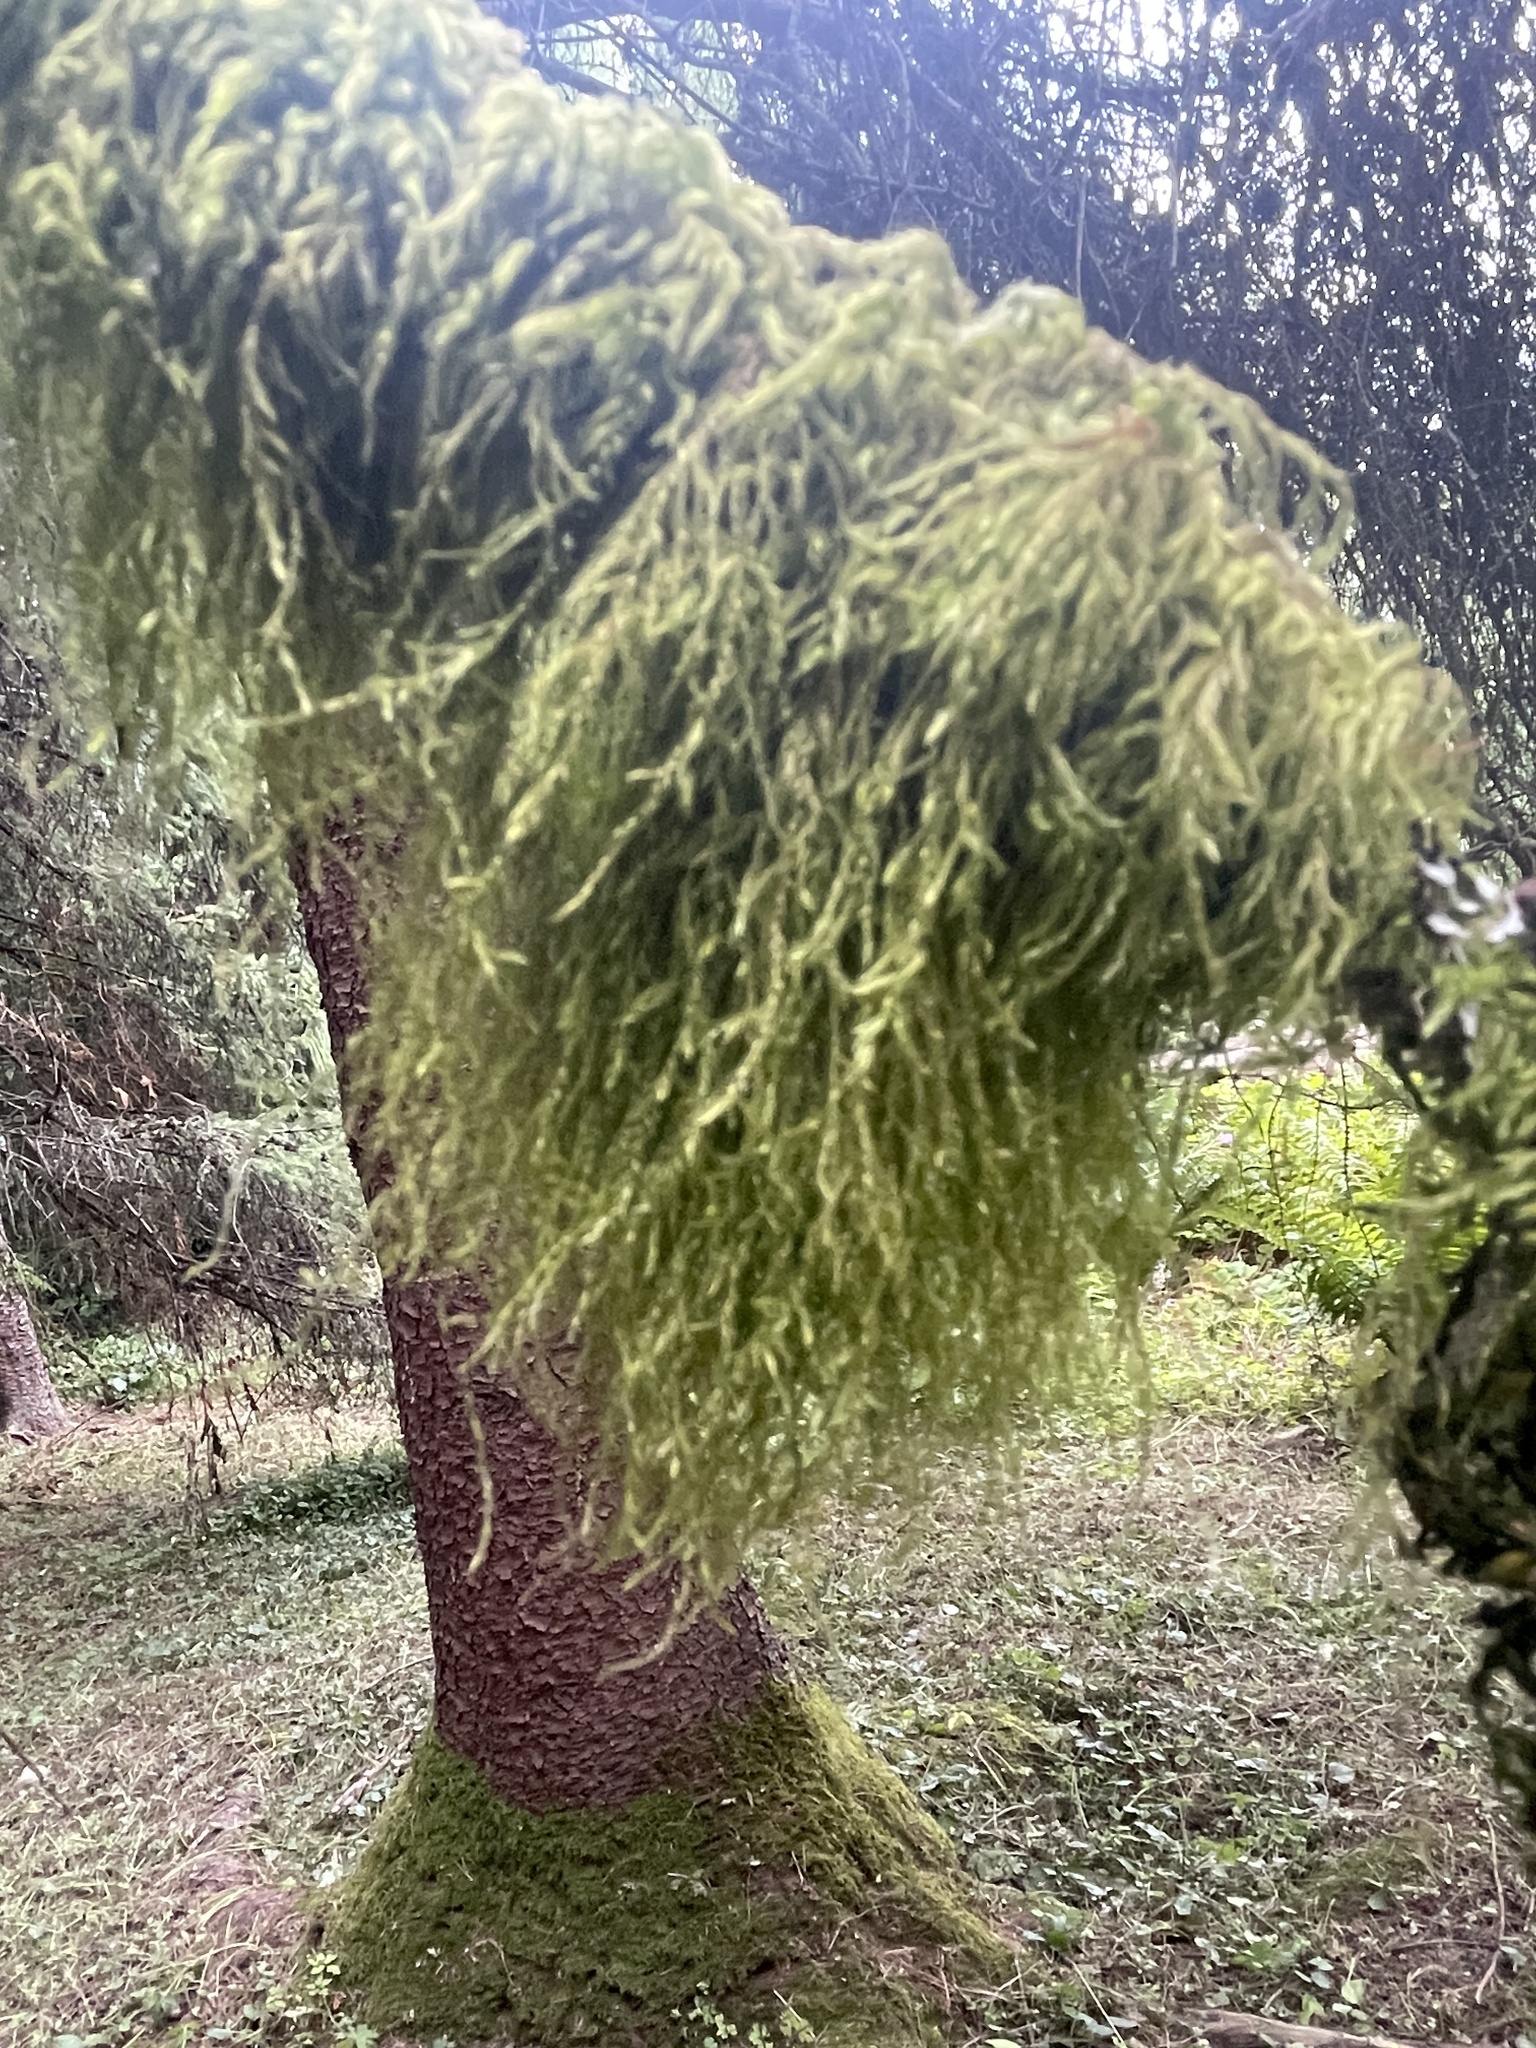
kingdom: Plantae
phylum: Bryophyta
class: Bryopsida
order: Hypnales
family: Lembophyllaceae
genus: Pseudisothecium
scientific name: Pseudisothecium stoloniferum
